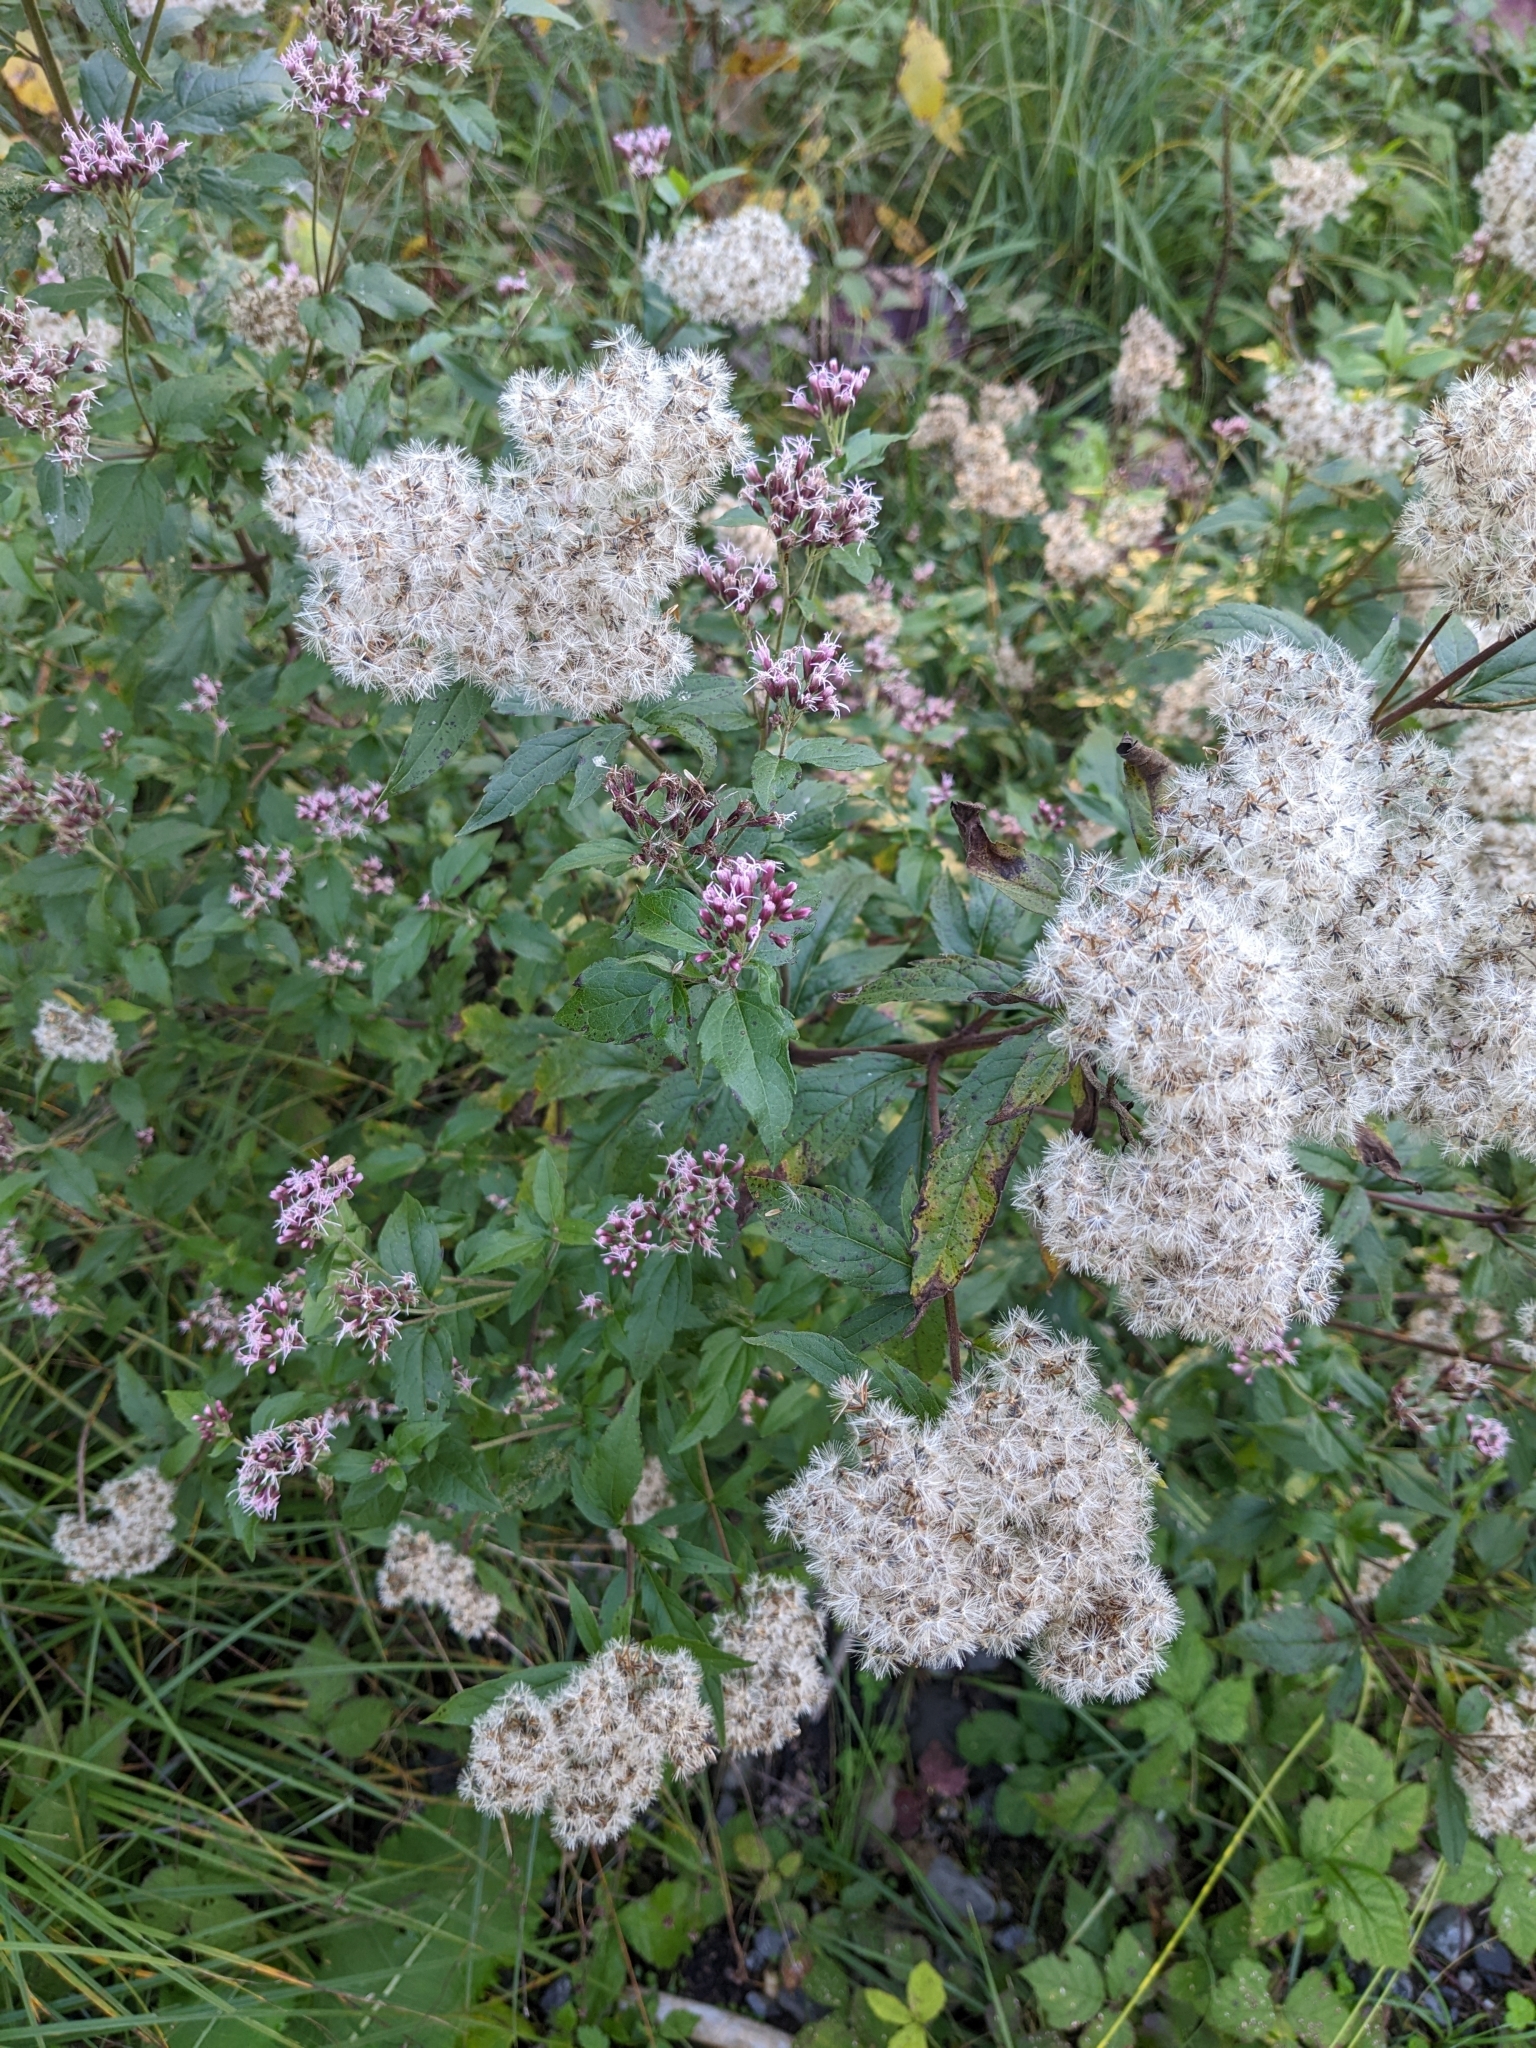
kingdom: Animalia
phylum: Arthropoda
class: Insecta
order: Lepidoptera
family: Crambidae
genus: Nomophila
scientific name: Nomophila noctuella
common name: Rush veneer
